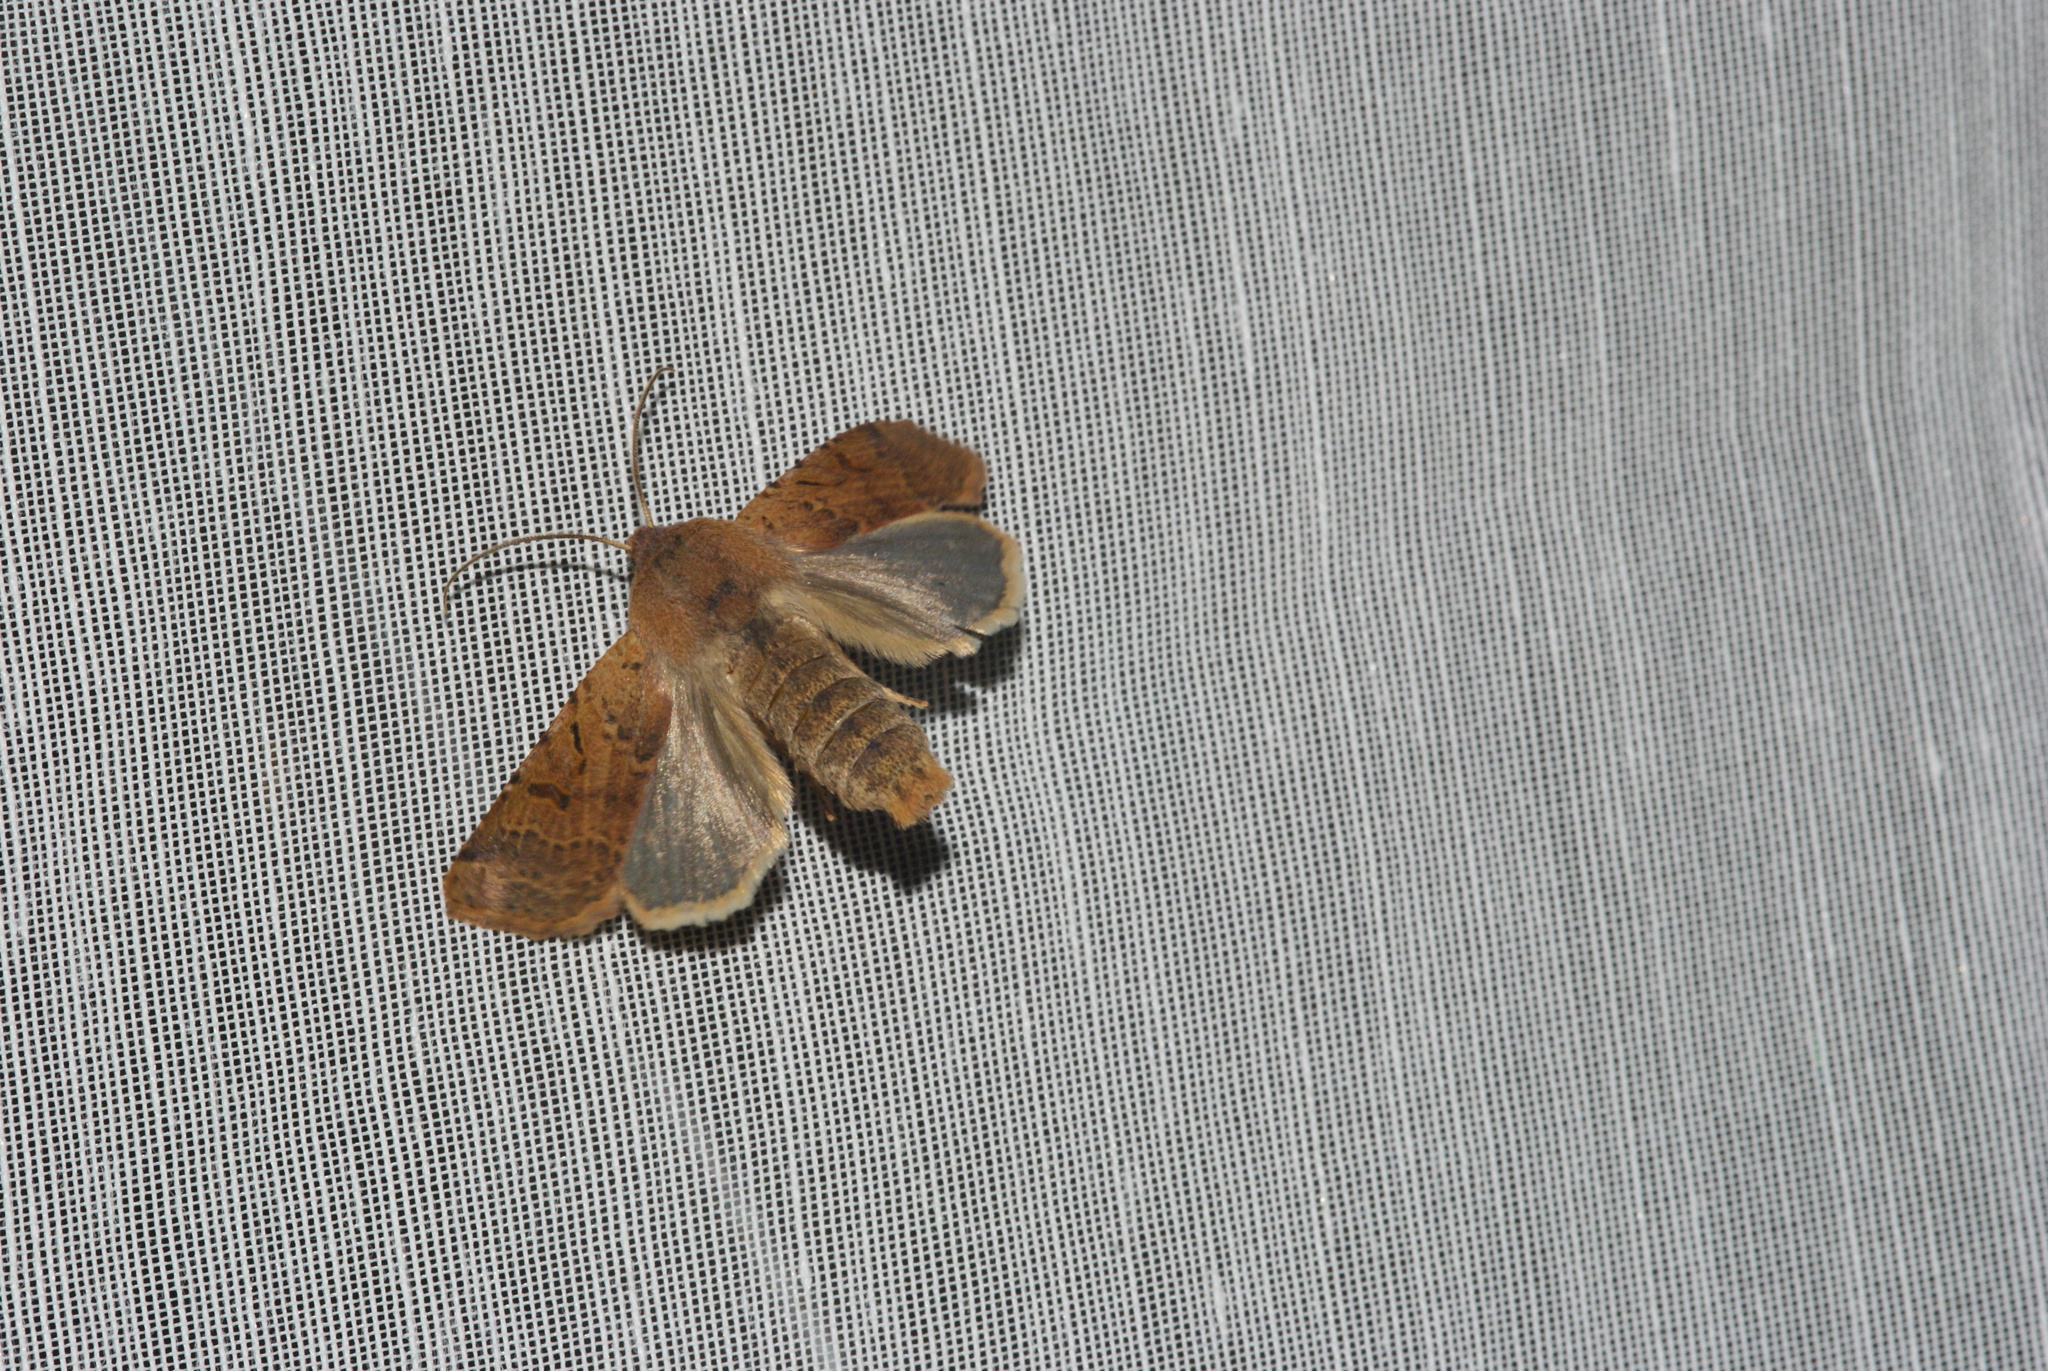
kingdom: Animalia
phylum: Arthropoda
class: Insecta
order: Lepidoptera
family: Noctuidae
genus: Agrochola
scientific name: Agrochola lychnidis
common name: Beaded chestnut
